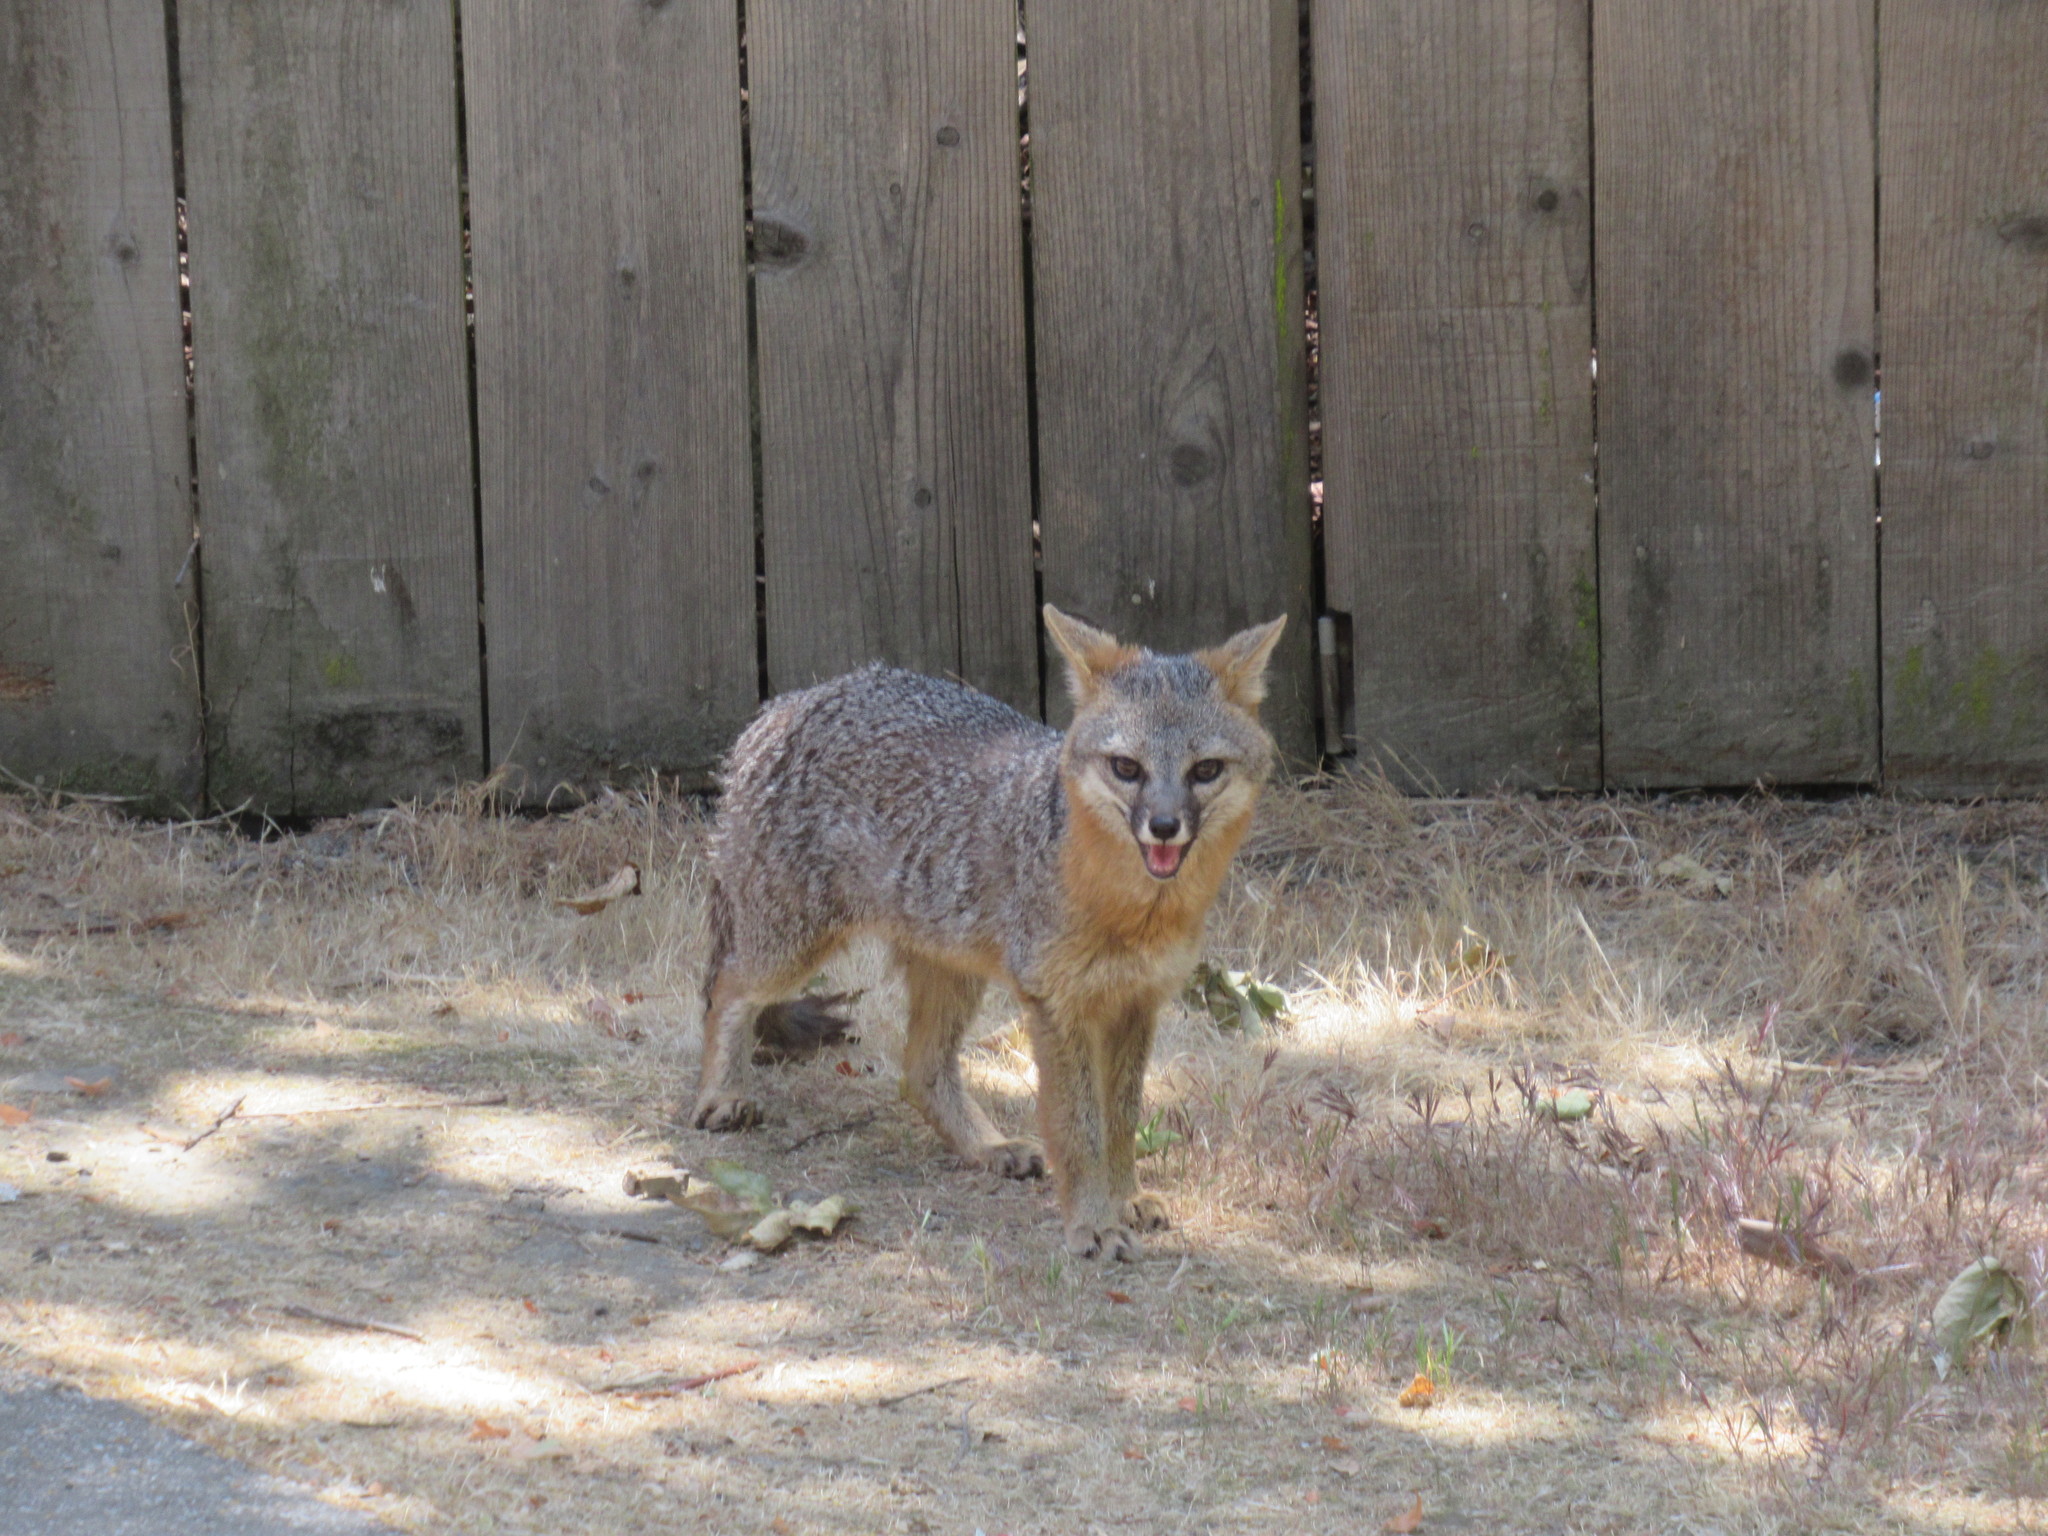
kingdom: Animalia
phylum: Chordata
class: Mammalia
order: Carnivora
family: Canidae
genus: Urocyon
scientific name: Urocyon cinereoargenteus
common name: Gray fox
